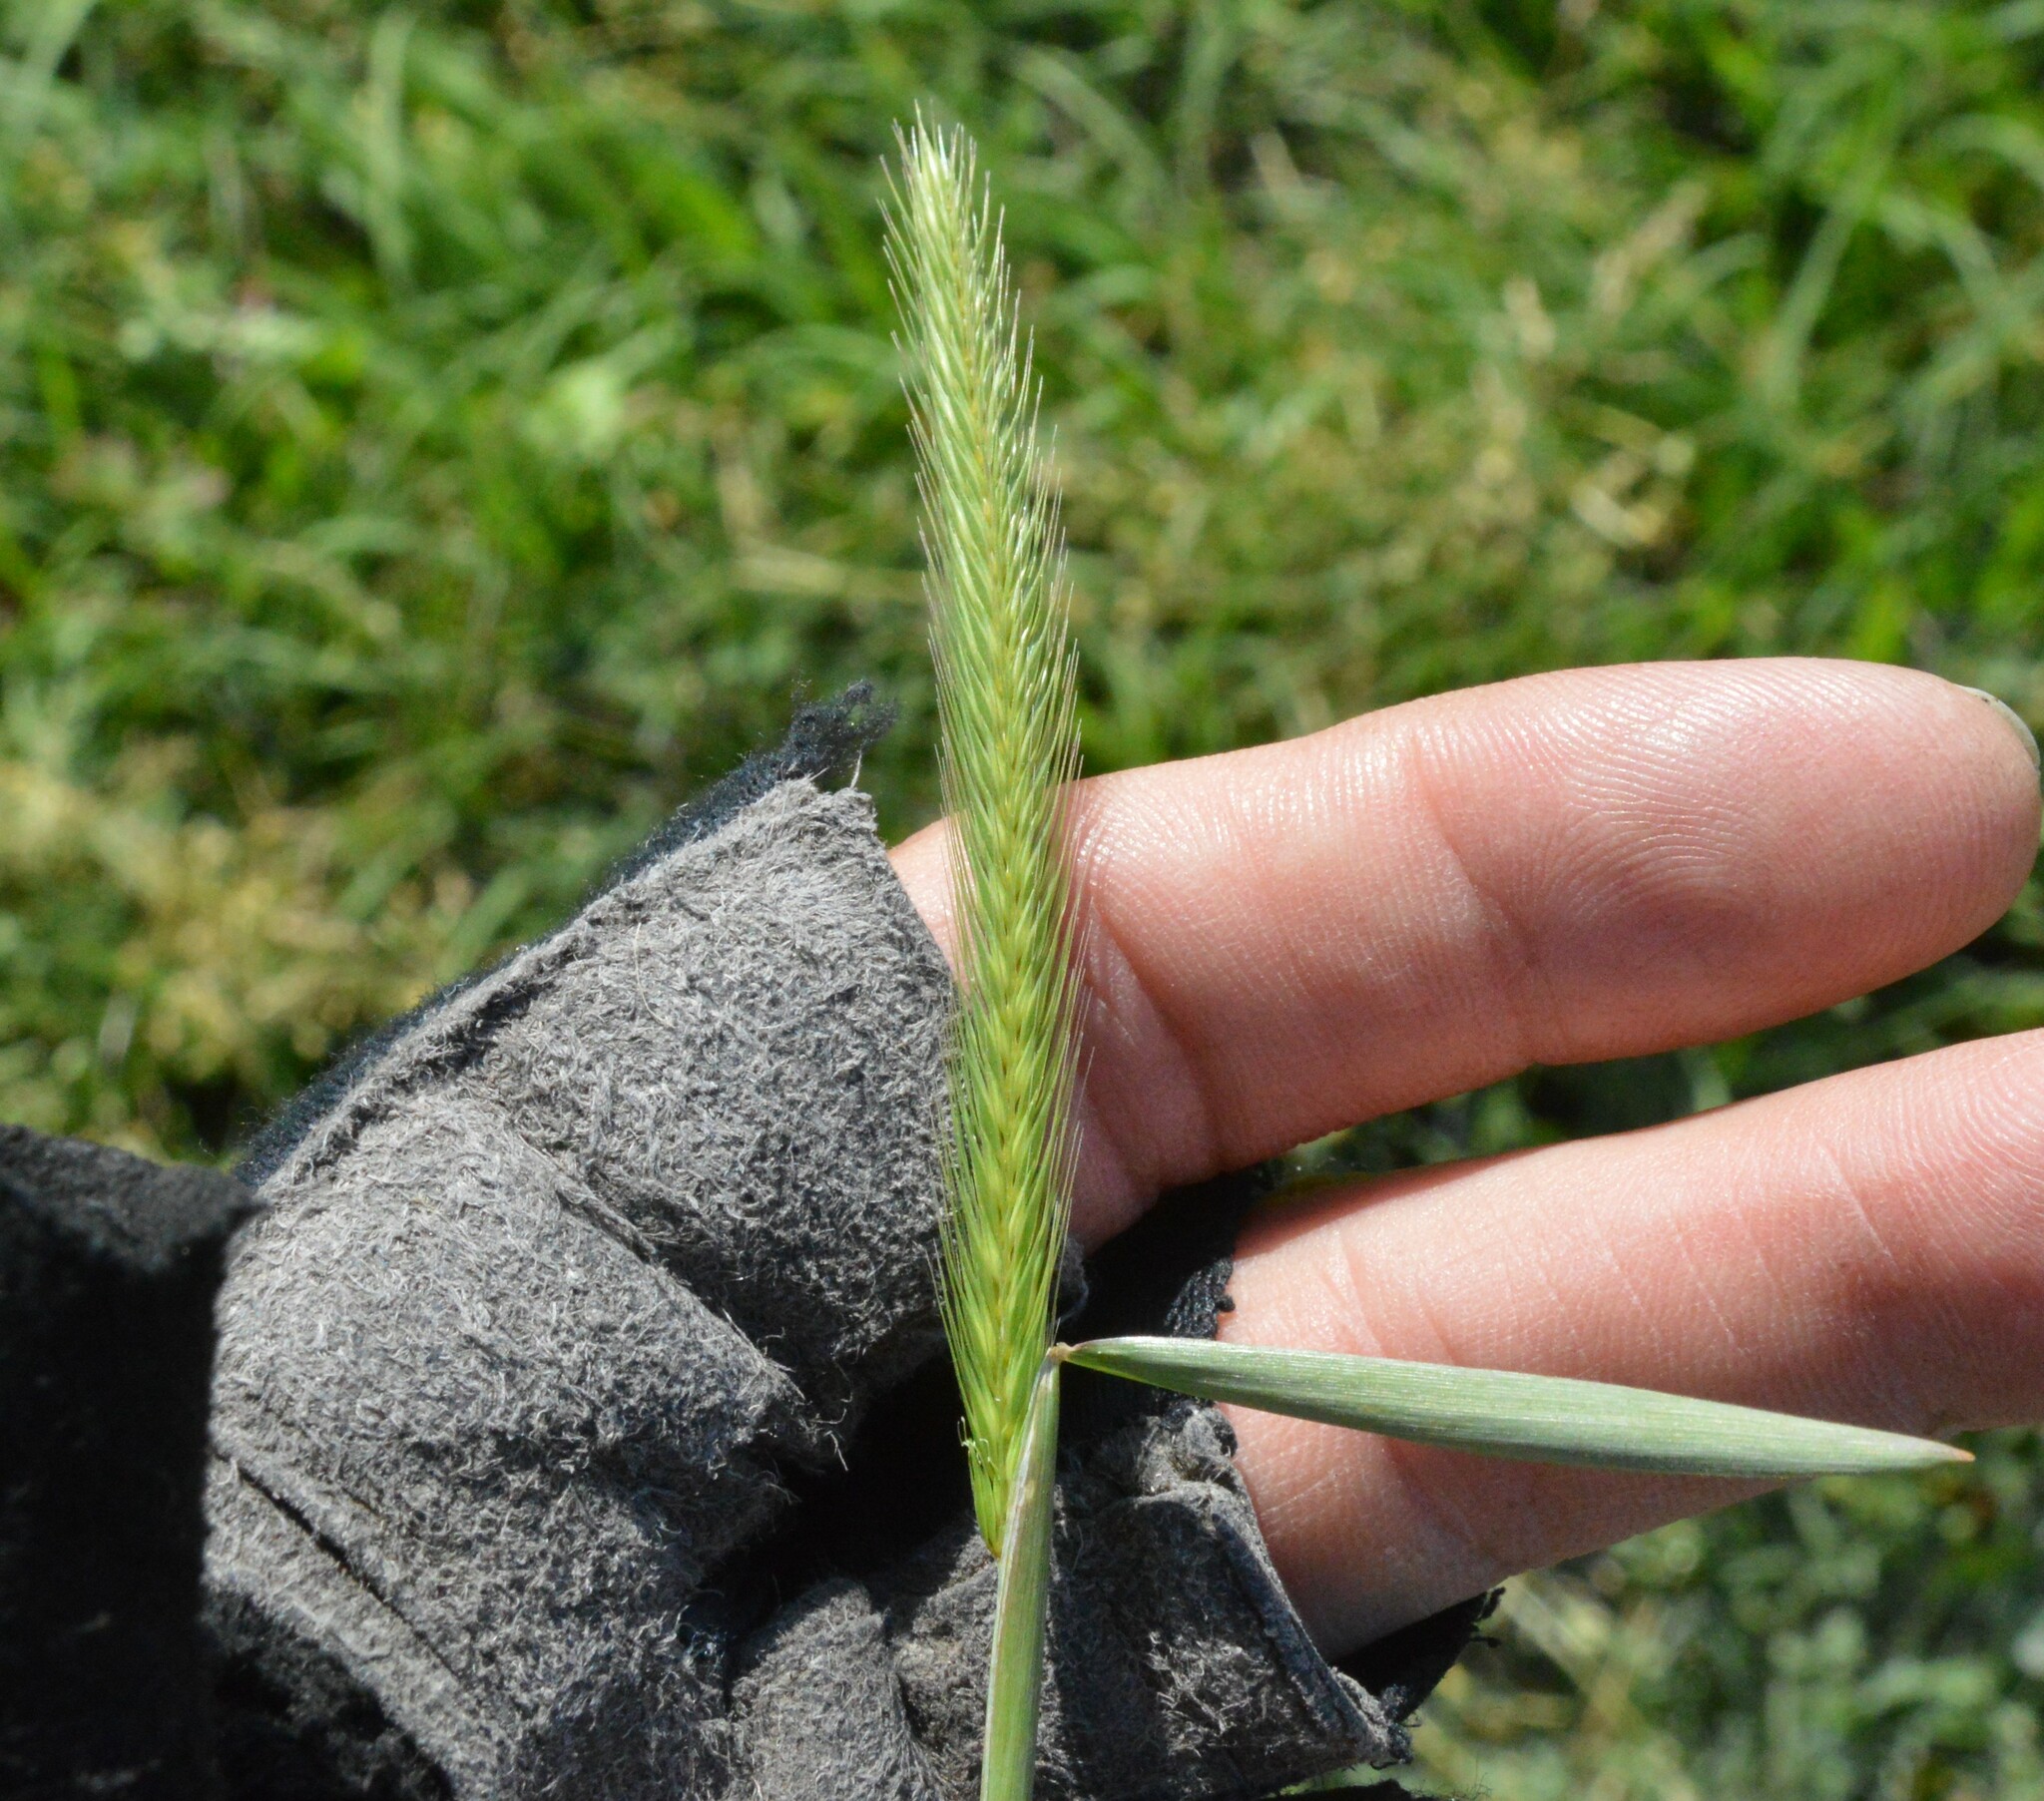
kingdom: Plantae
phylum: Tracheophyta
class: Liliopsida
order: Poales
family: Poaceae
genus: Hordeum
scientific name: Hordeum pusillum
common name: Little barley
